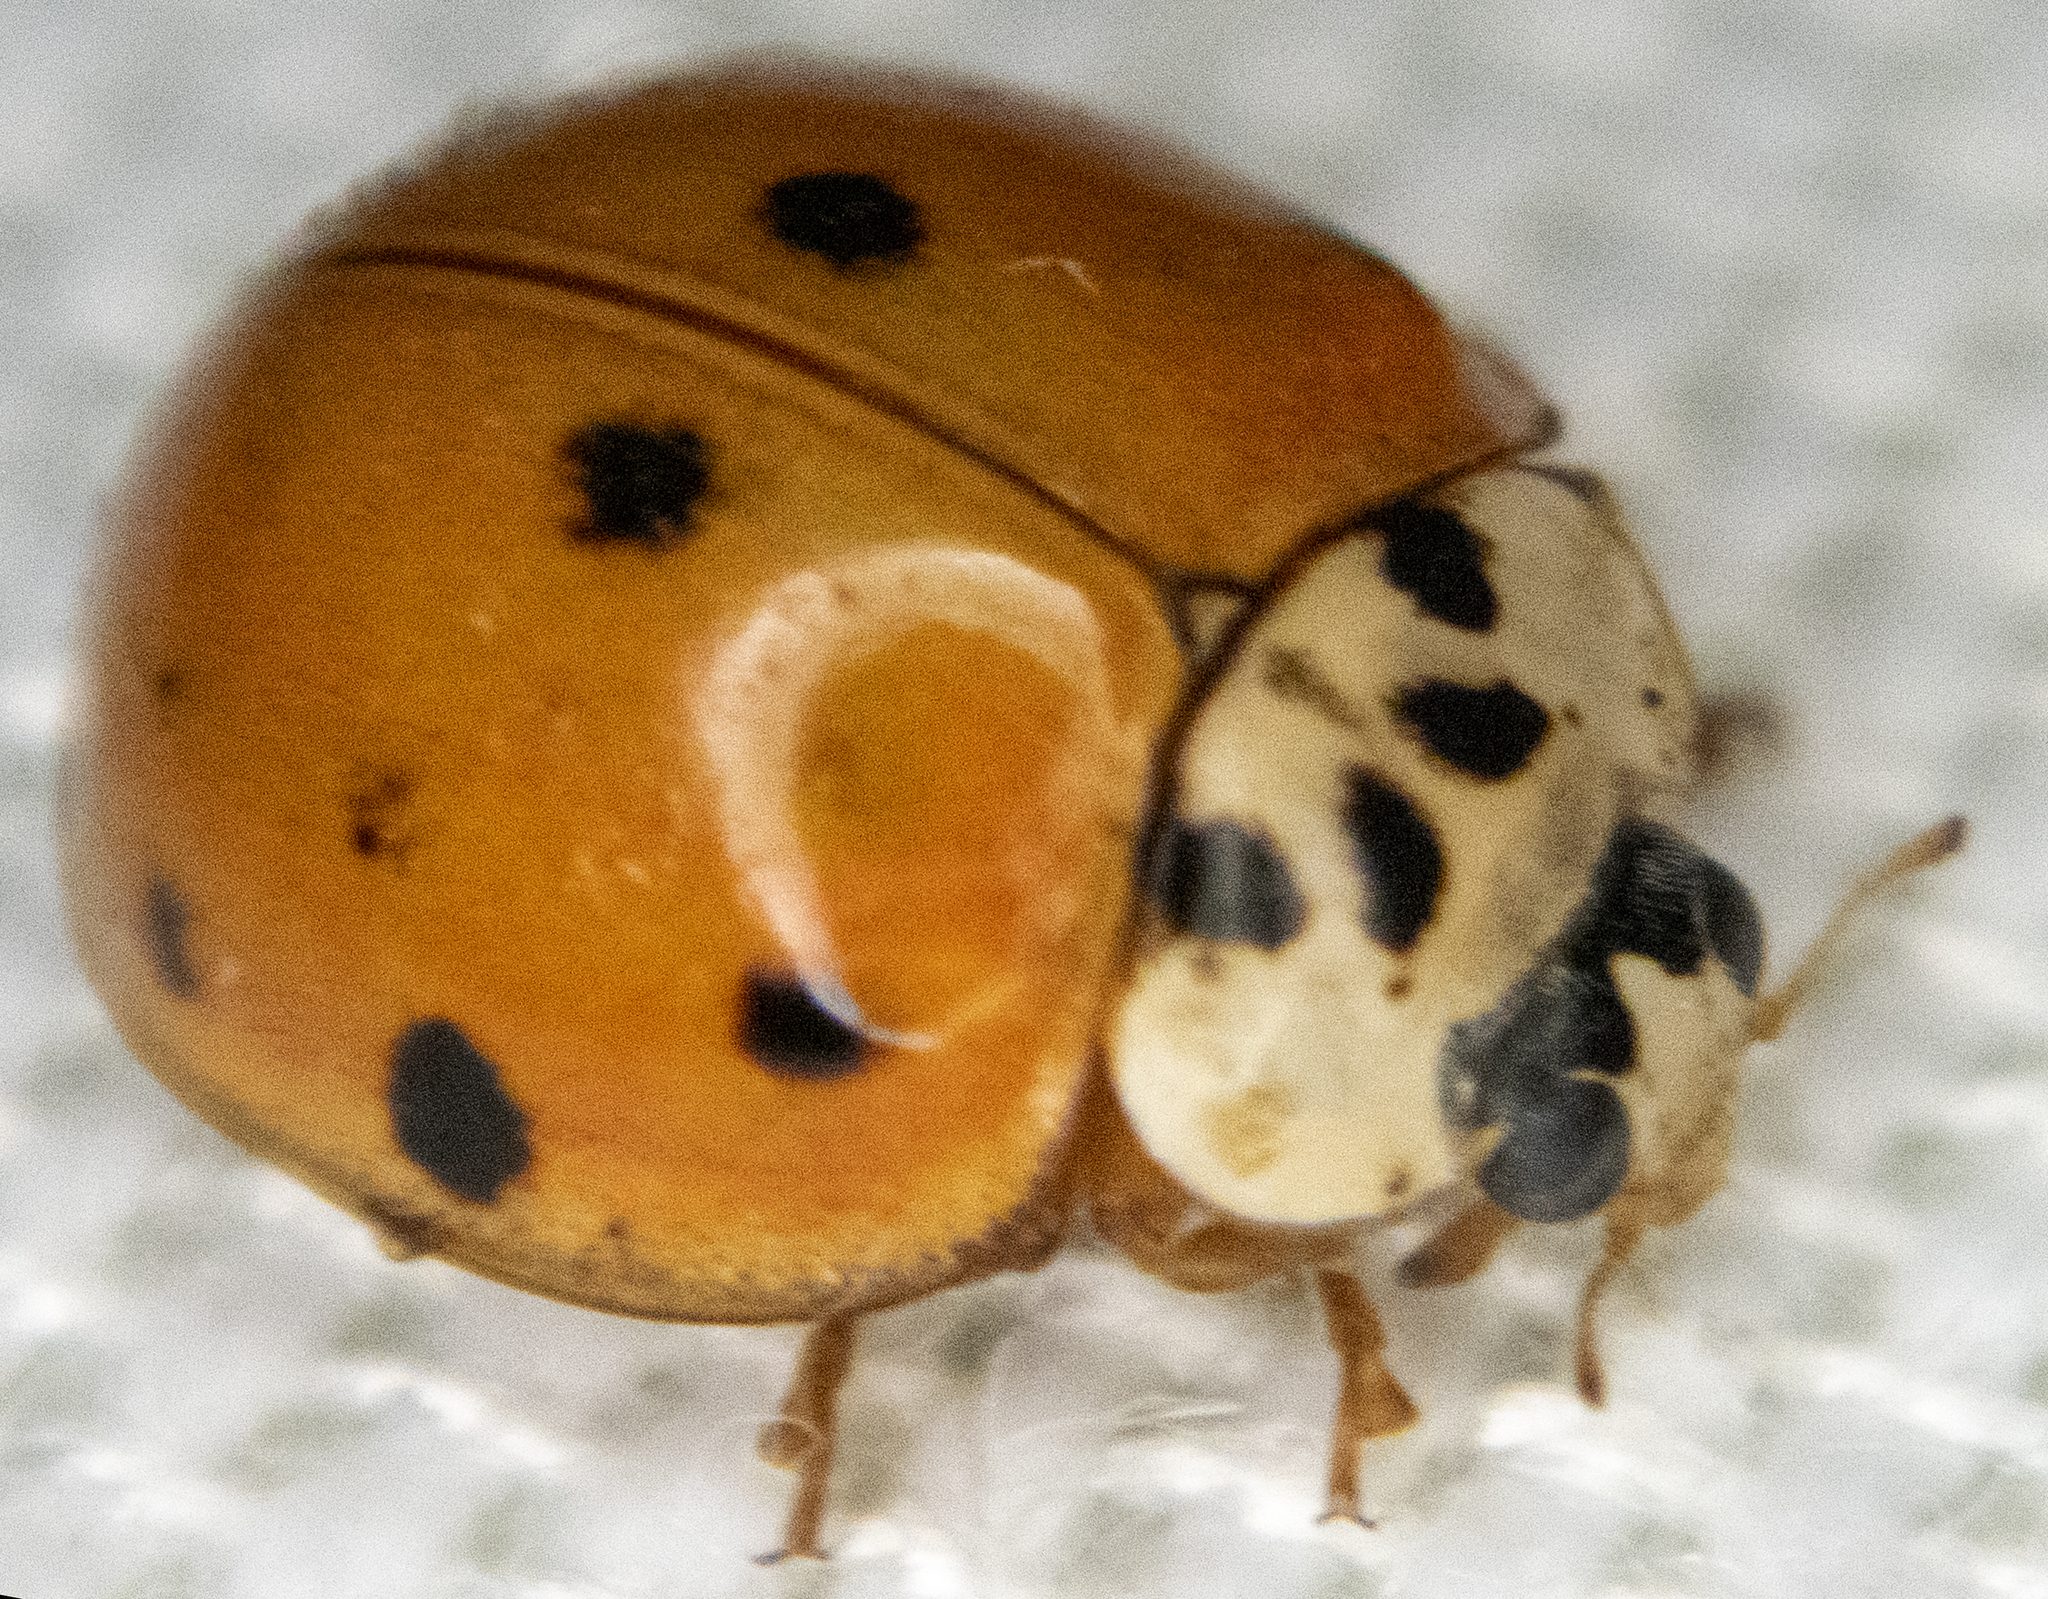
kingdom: Animalia
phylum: Arthropoda
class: Insecta
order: Coleoptera
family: Coccinellidae
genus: Harmonia
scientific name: Harmonia axyridis
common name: Harlequin ladybird
